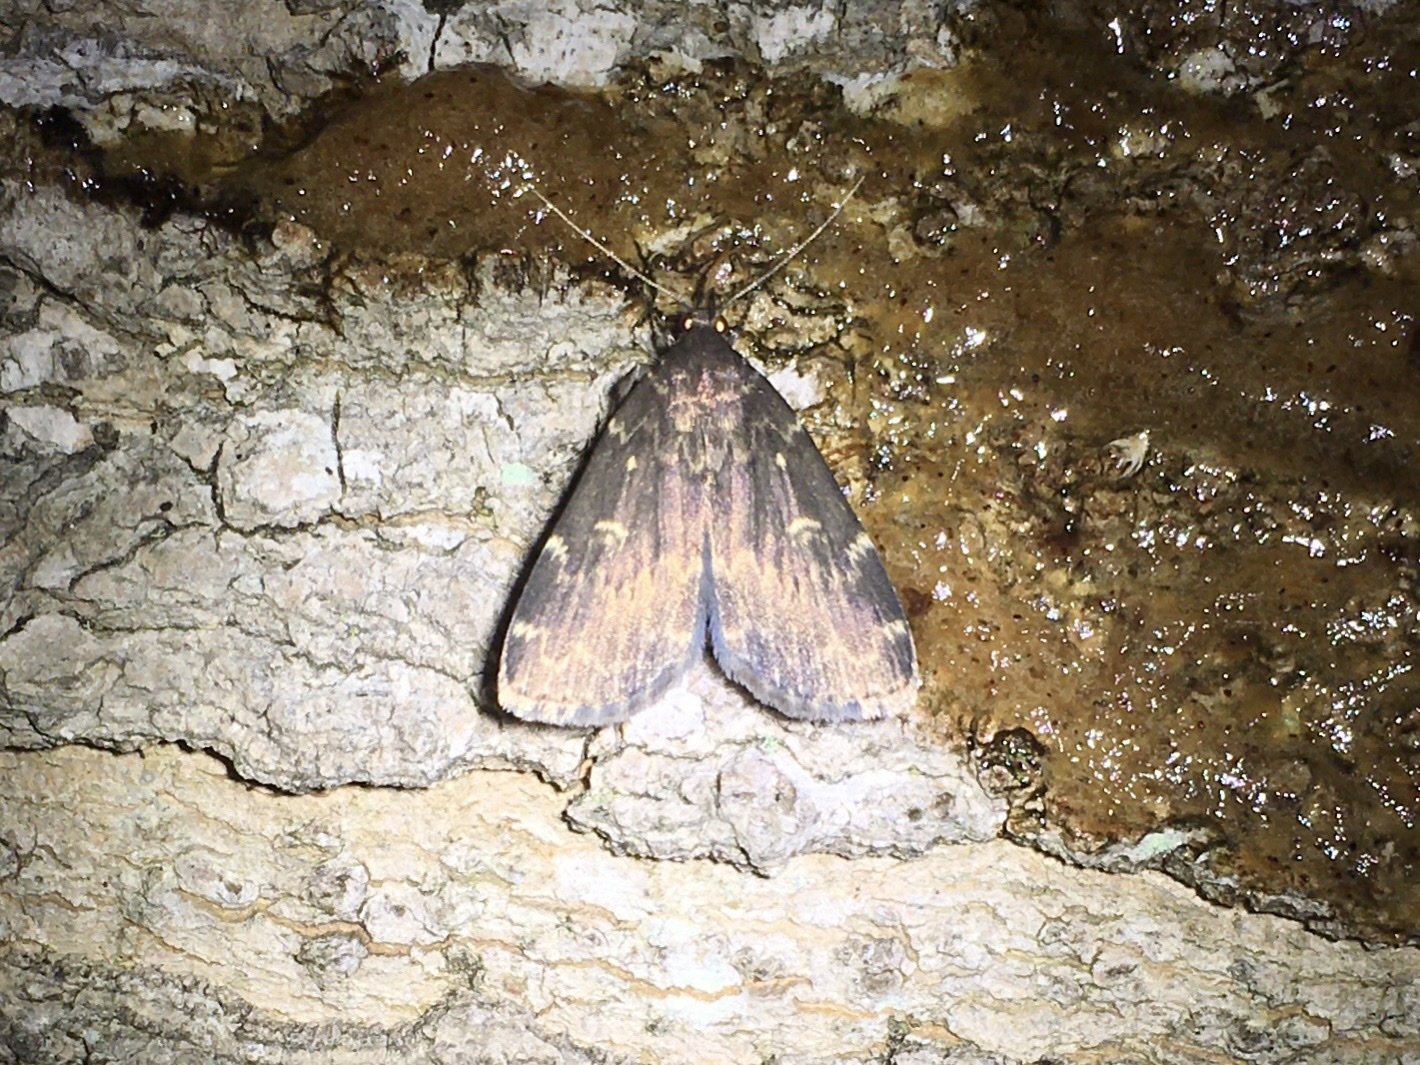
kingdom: Animalia
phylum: Arthropoda
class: Insecta
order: Lepidoptera
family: Erebidae
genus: Idia
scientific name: Idia lubricalis
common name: Twin-striped tabby
